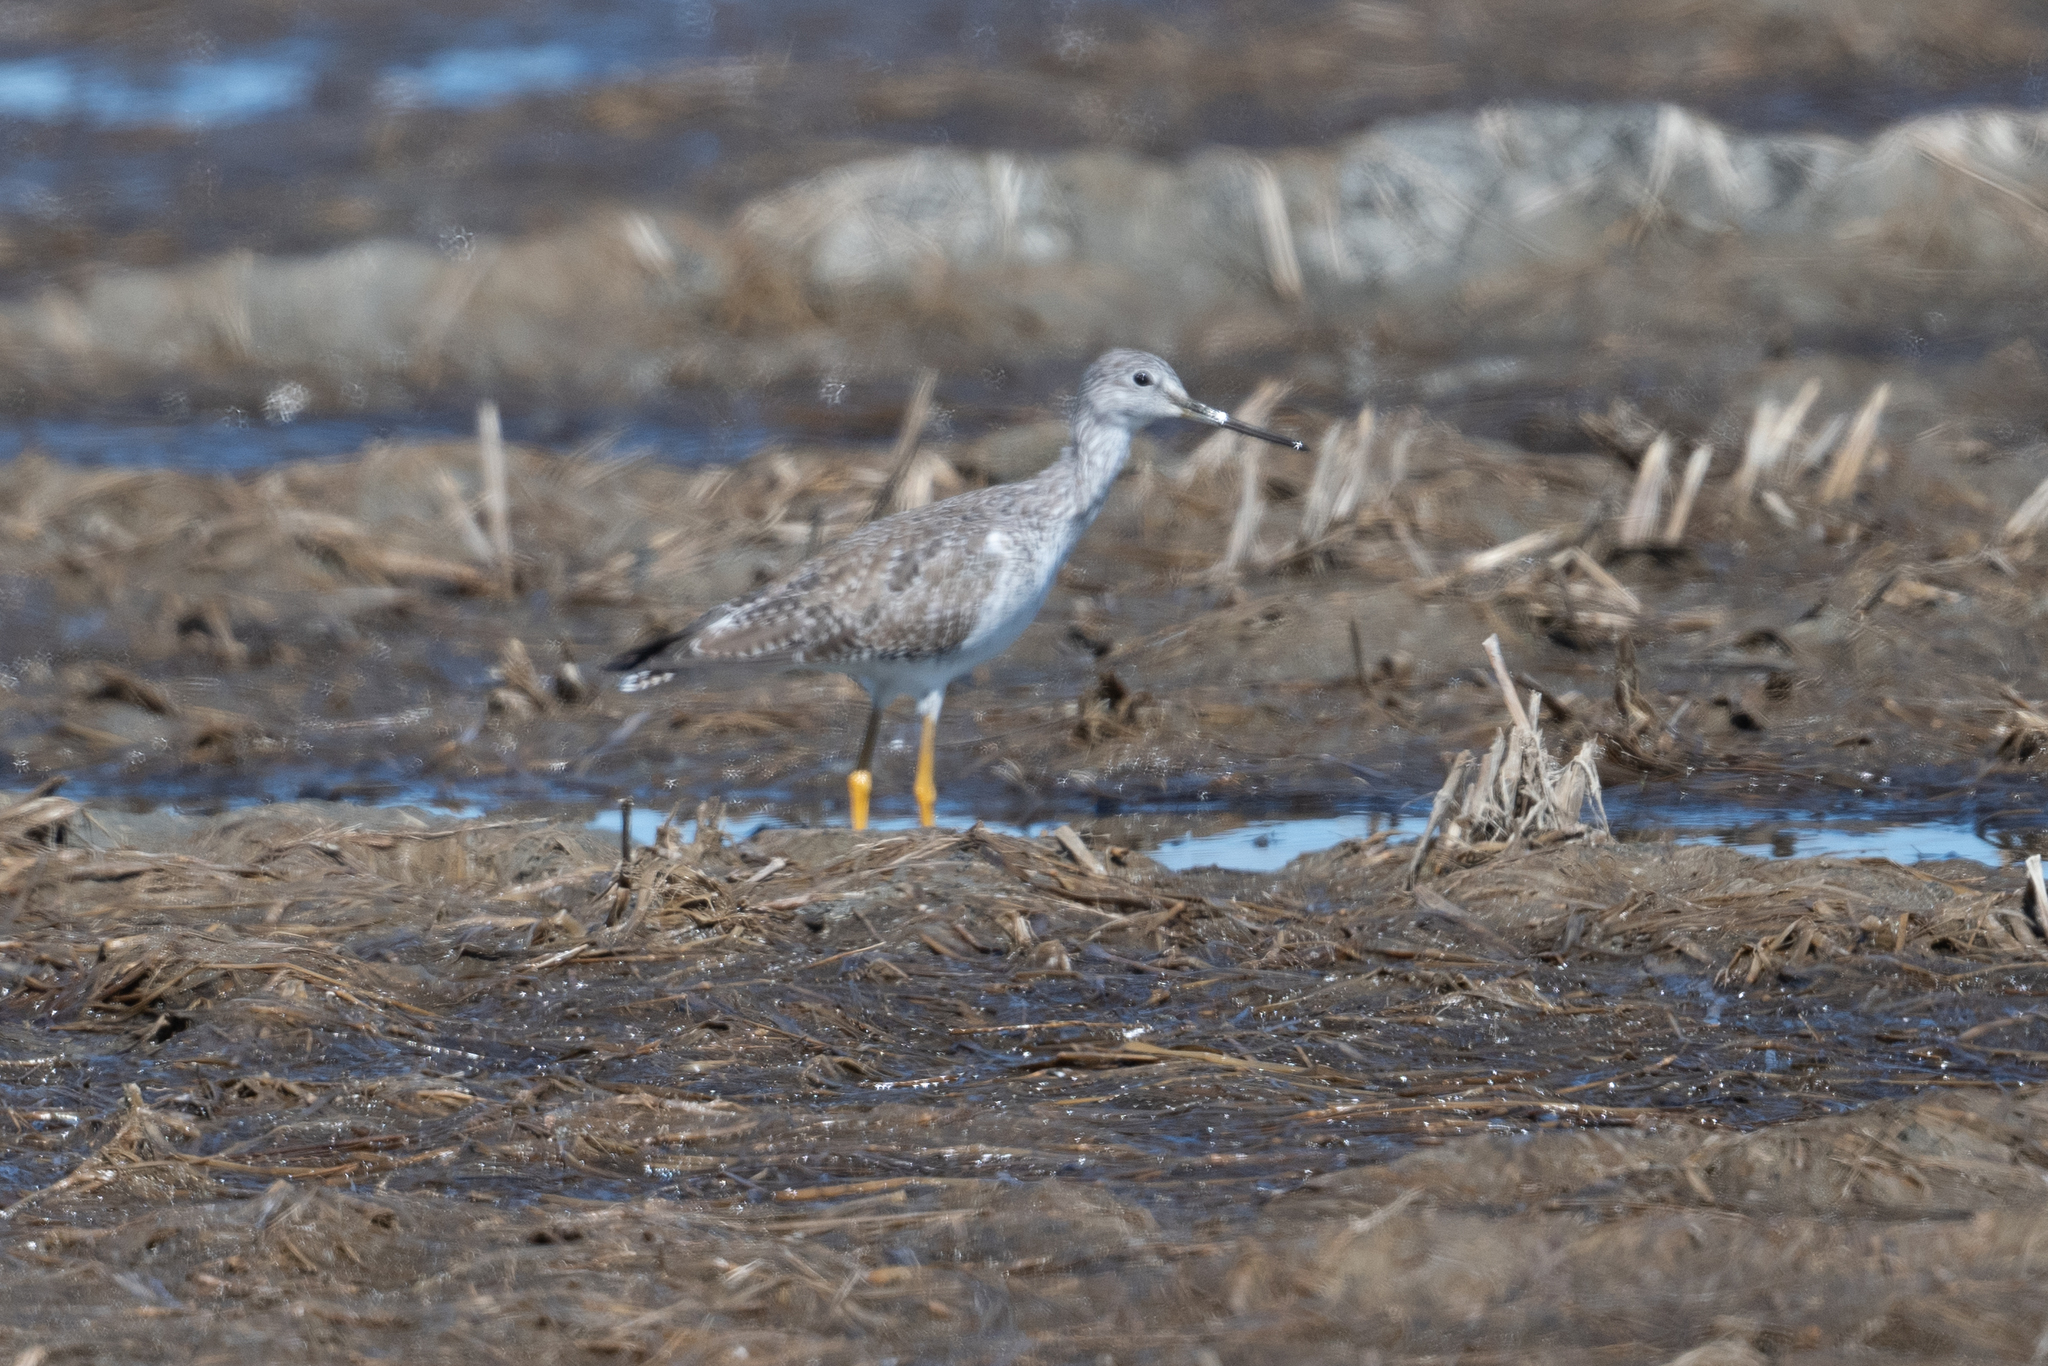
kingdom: Animalia
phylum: Chordata
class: Aves
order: Charadriiformes
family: Scolopacidae
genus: Tringa
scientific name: Tringa melanoleuca
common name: Greater yellowlegs
